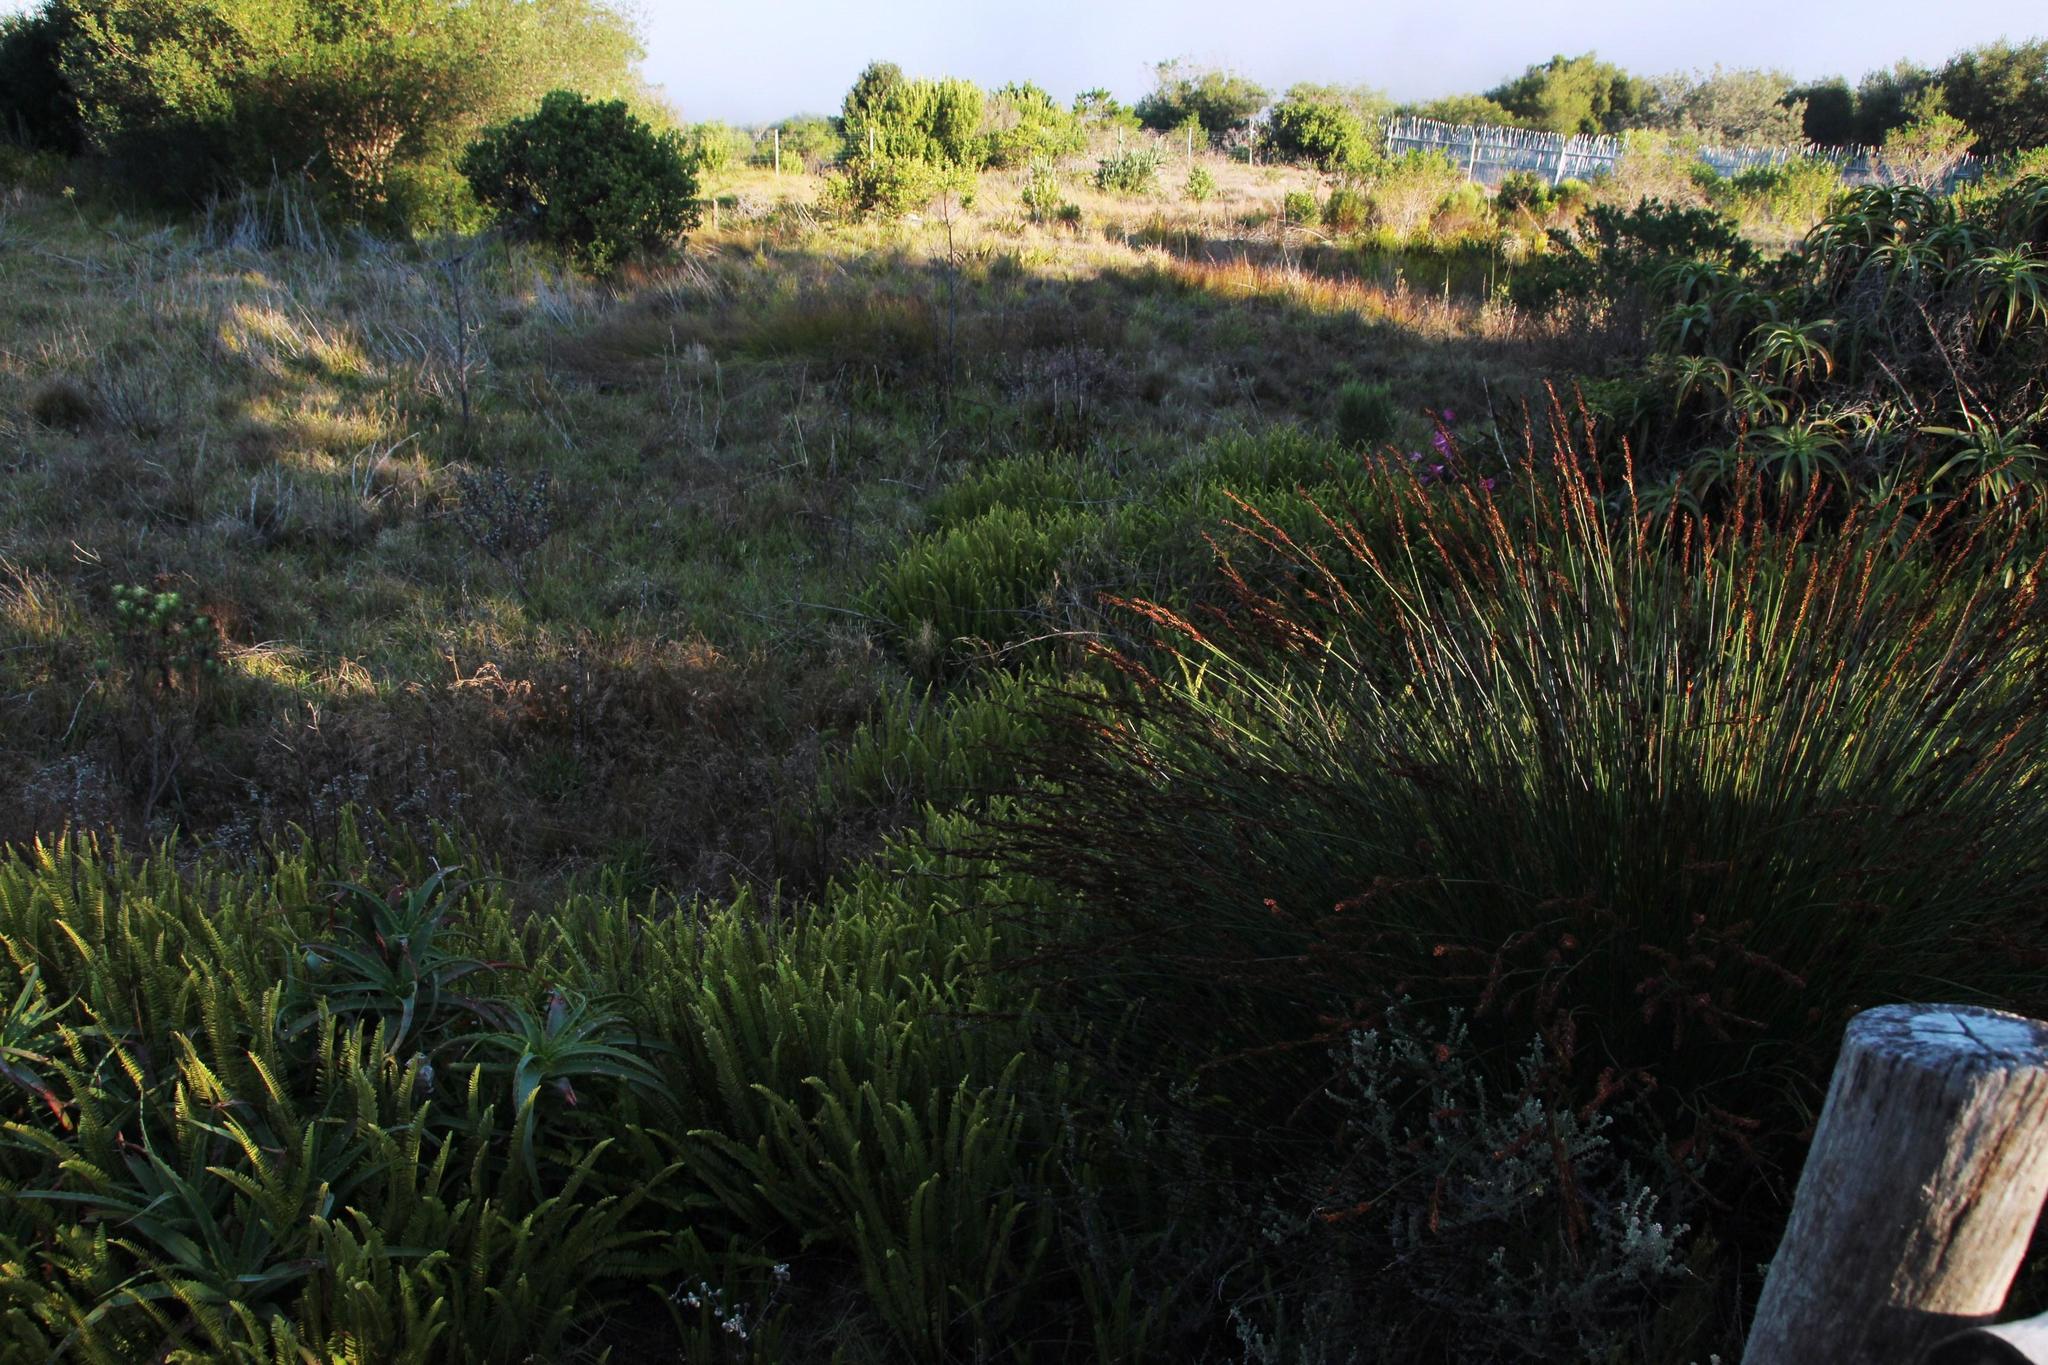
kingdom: Plantae
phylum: Tracheophyta
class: Polypodiopsida
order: Polypodiales
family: Nephrolepidaceae
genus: Nephrolepis
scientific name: Nephrolepis cordifolia
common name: Narrow swordfern
